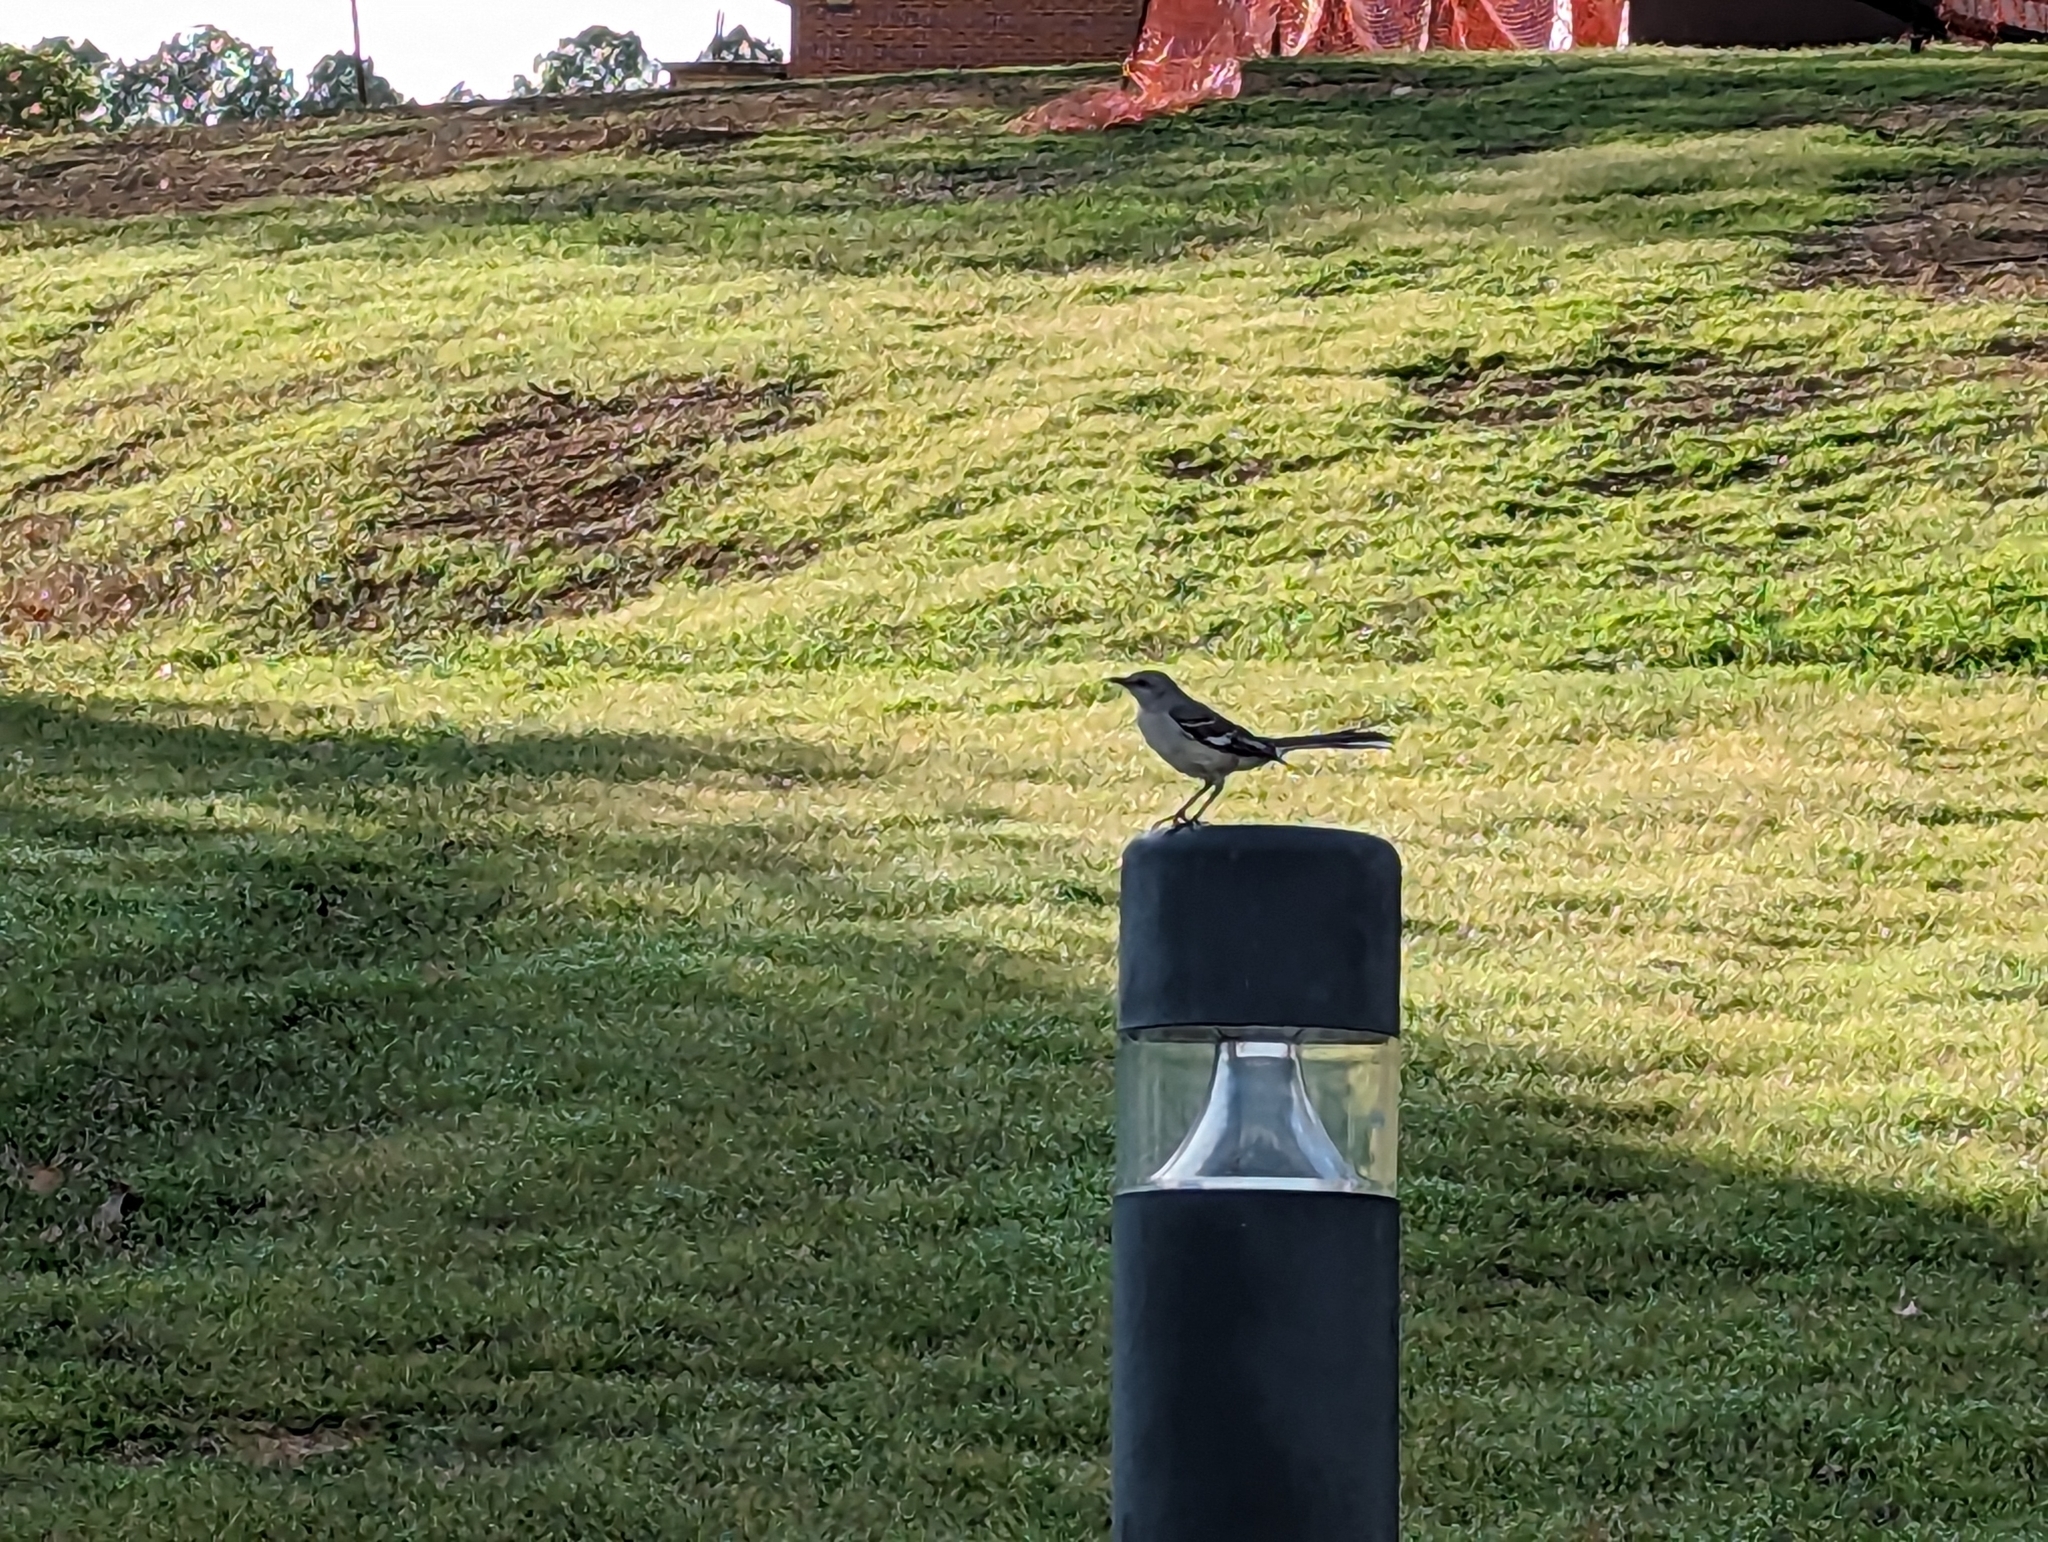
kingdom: Animalia
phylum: Chordata
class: Aves
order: Passeriformes
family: Mimidae
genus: Mimus
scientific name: Mimus polyglottos
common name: Northern mockingbird
